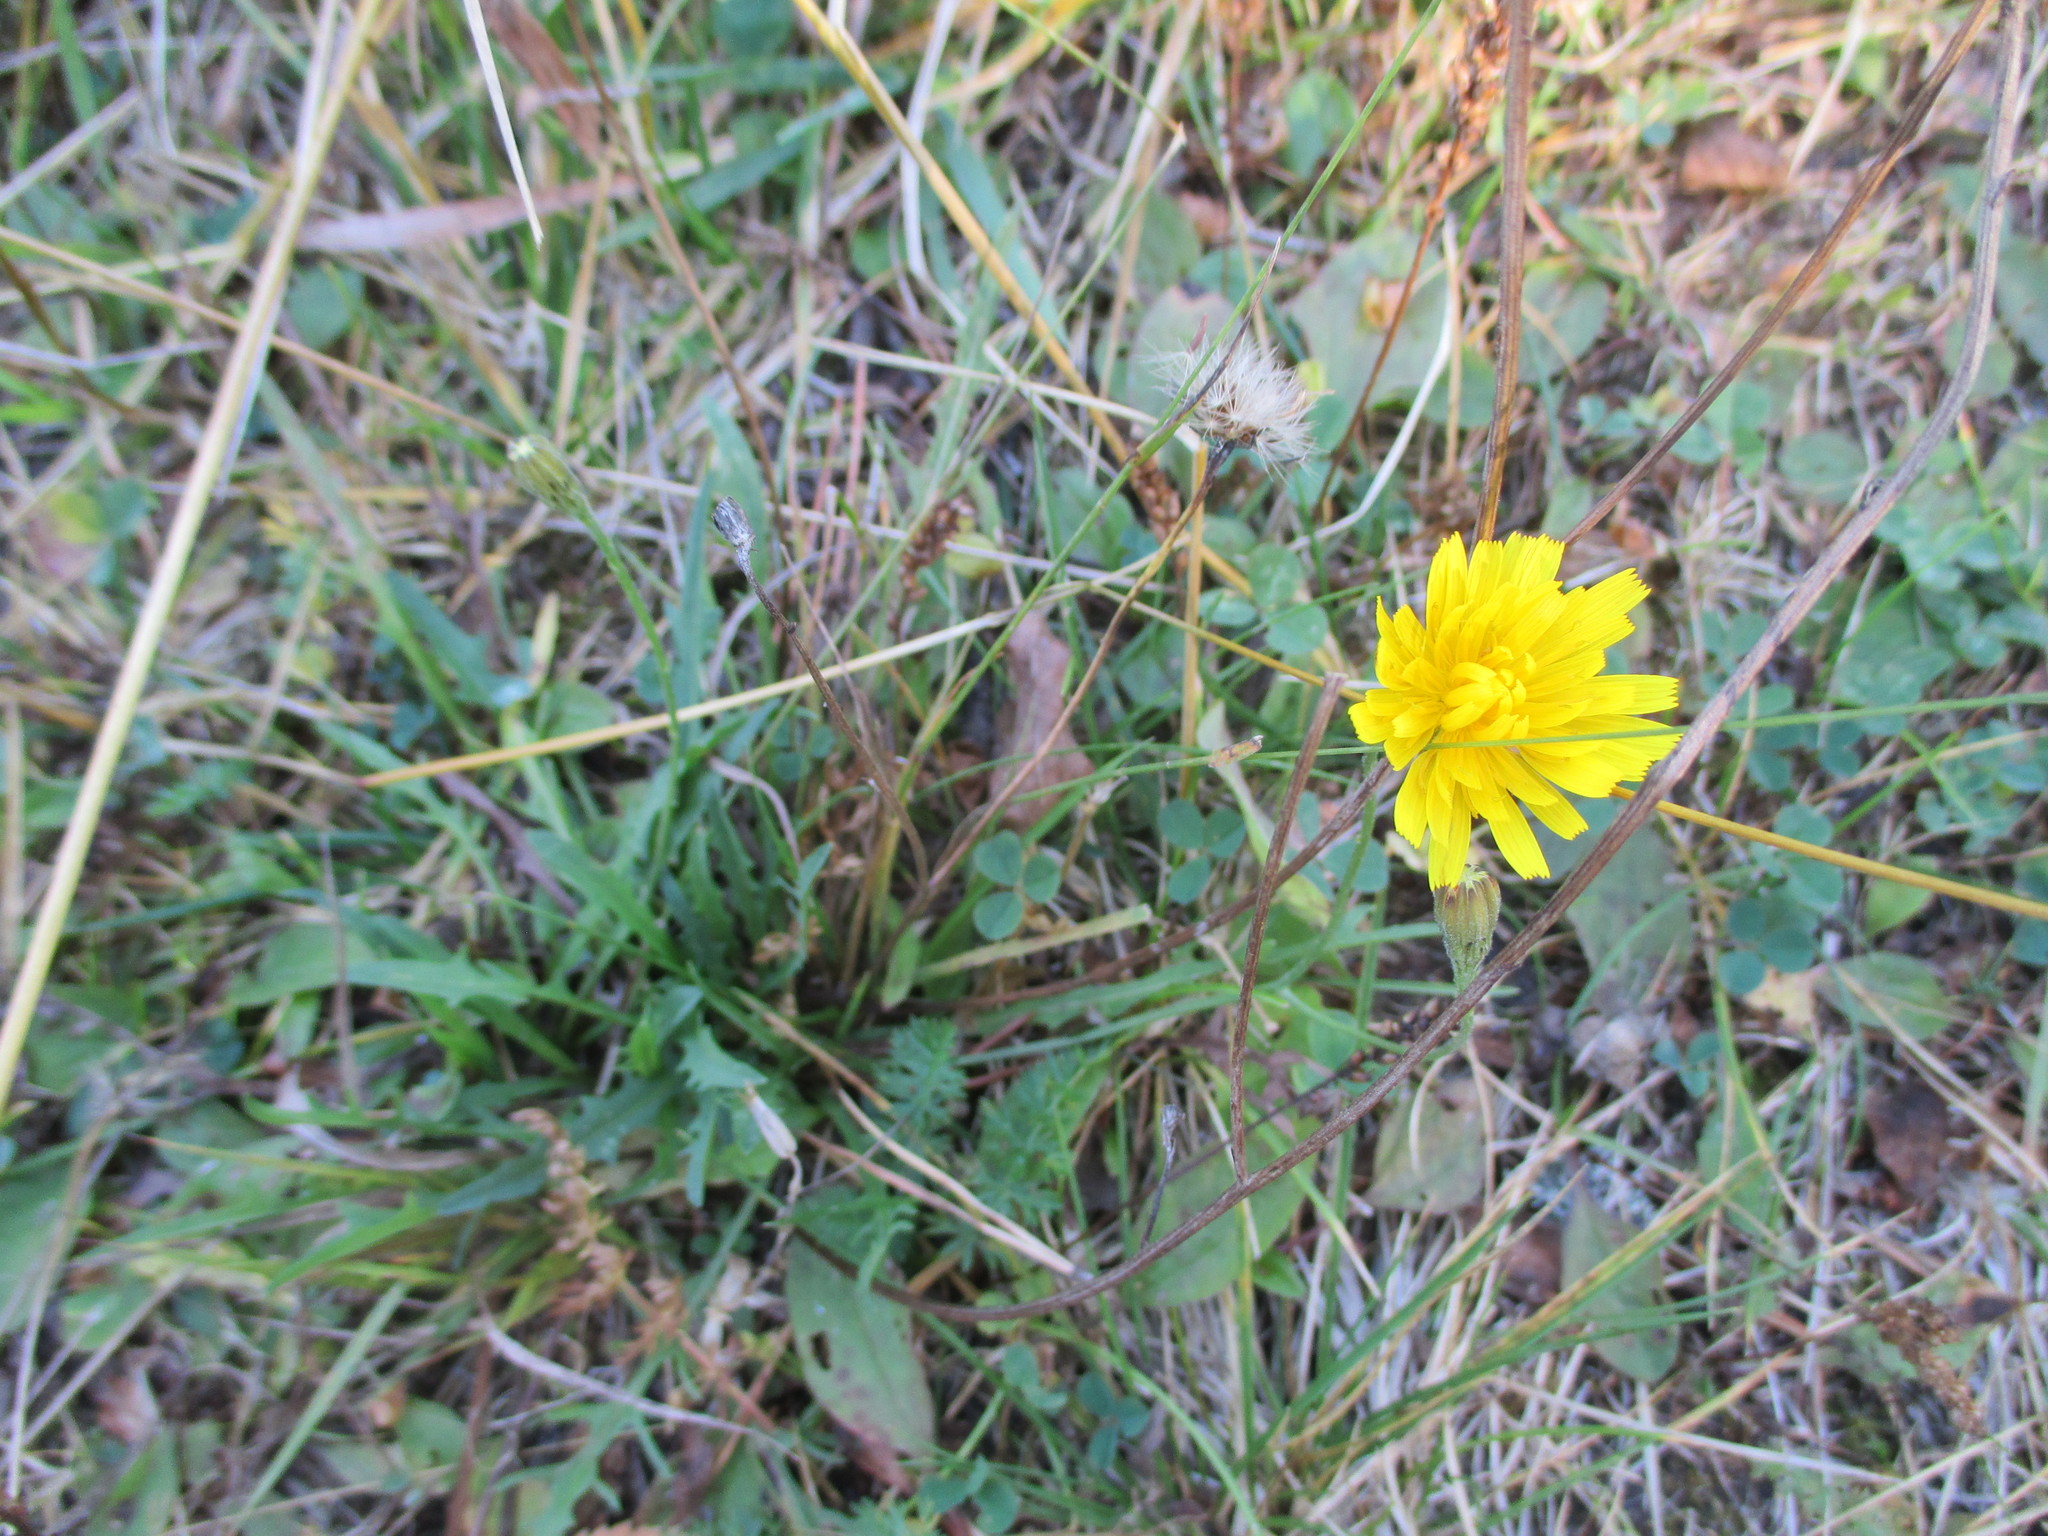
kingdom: Plantae
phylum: Tracheophyta
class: Magnoliopsida
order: Asterales
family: Asteraceae
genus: Scorzoneroides
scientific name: Scorzoneroides autumnalis
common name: Autumn hawkbit
